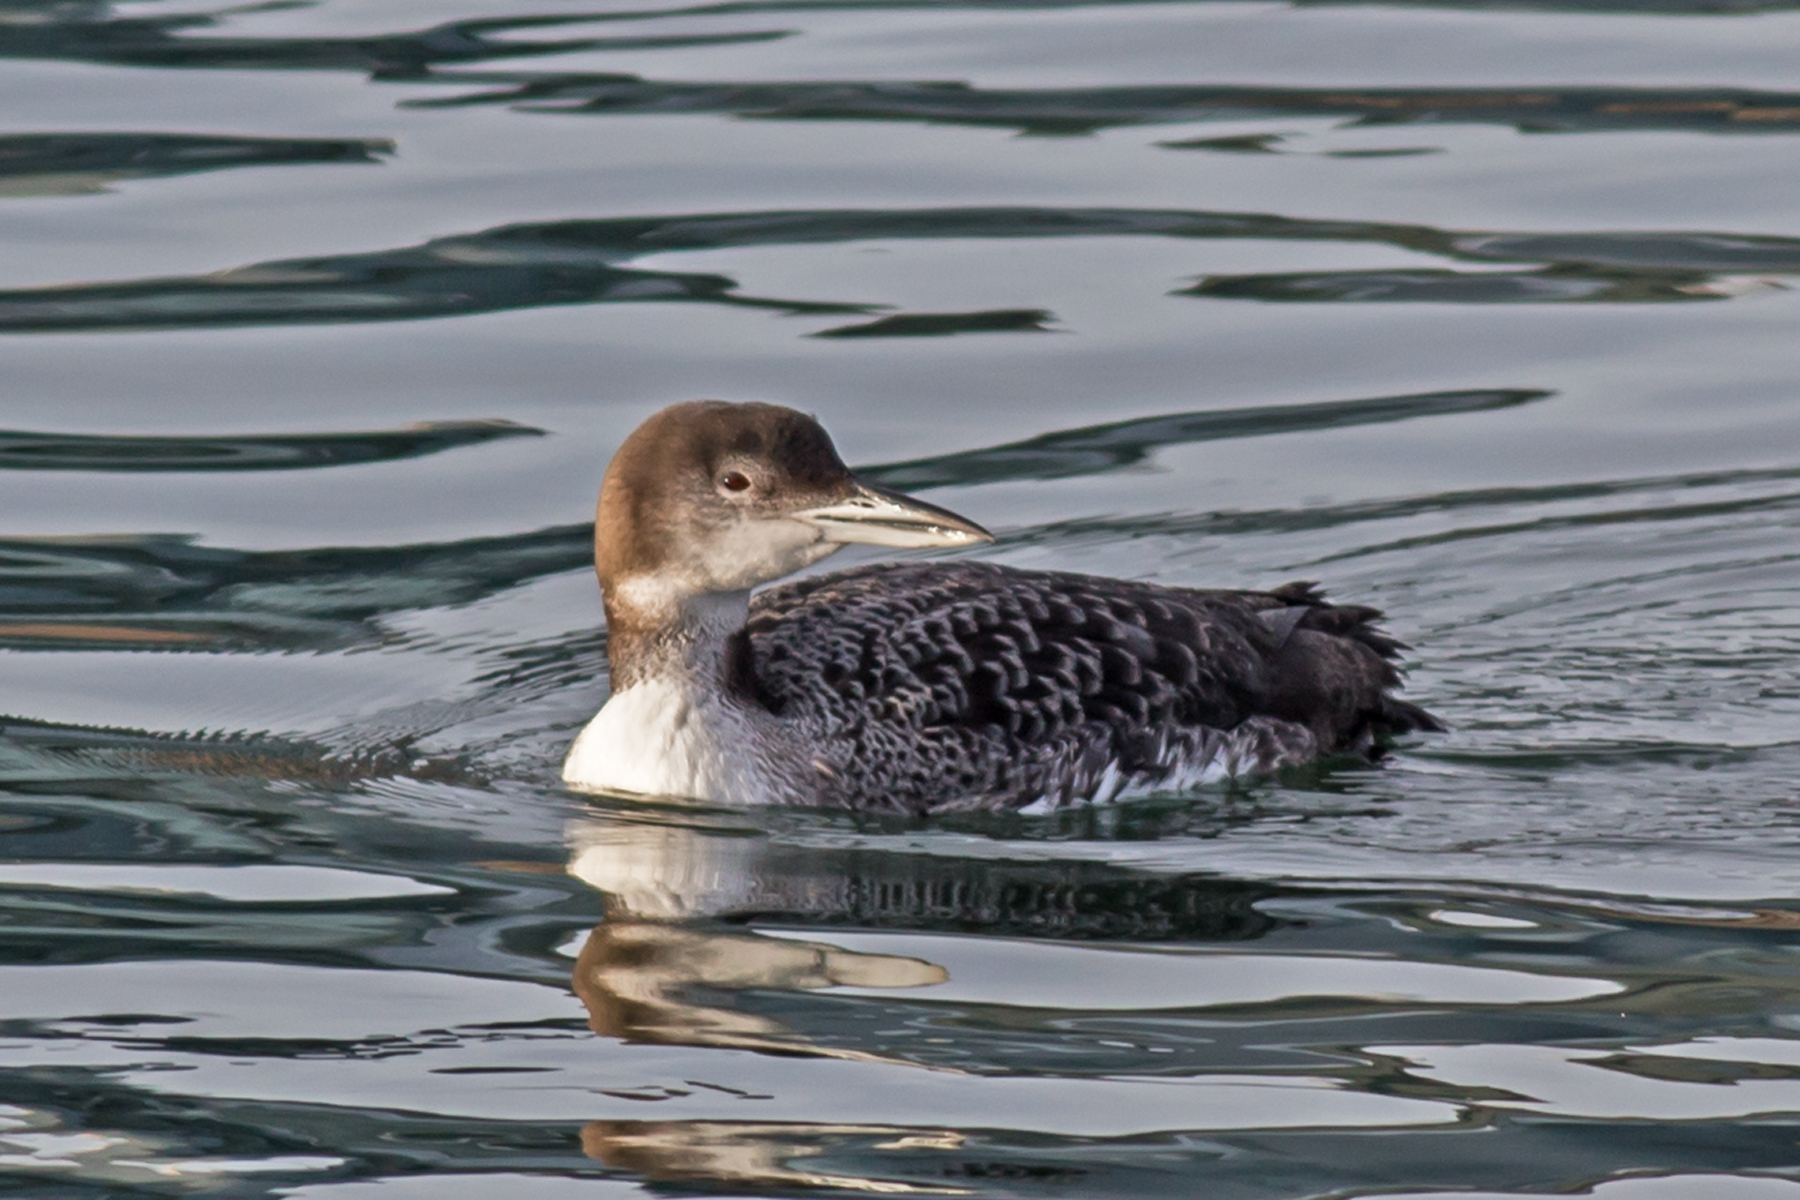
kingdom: Animalia
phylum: Chordata
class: Aves
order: Gaviiformes
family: Gaviidae
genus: Gavia
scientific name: Gavia immer
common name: Common loon
